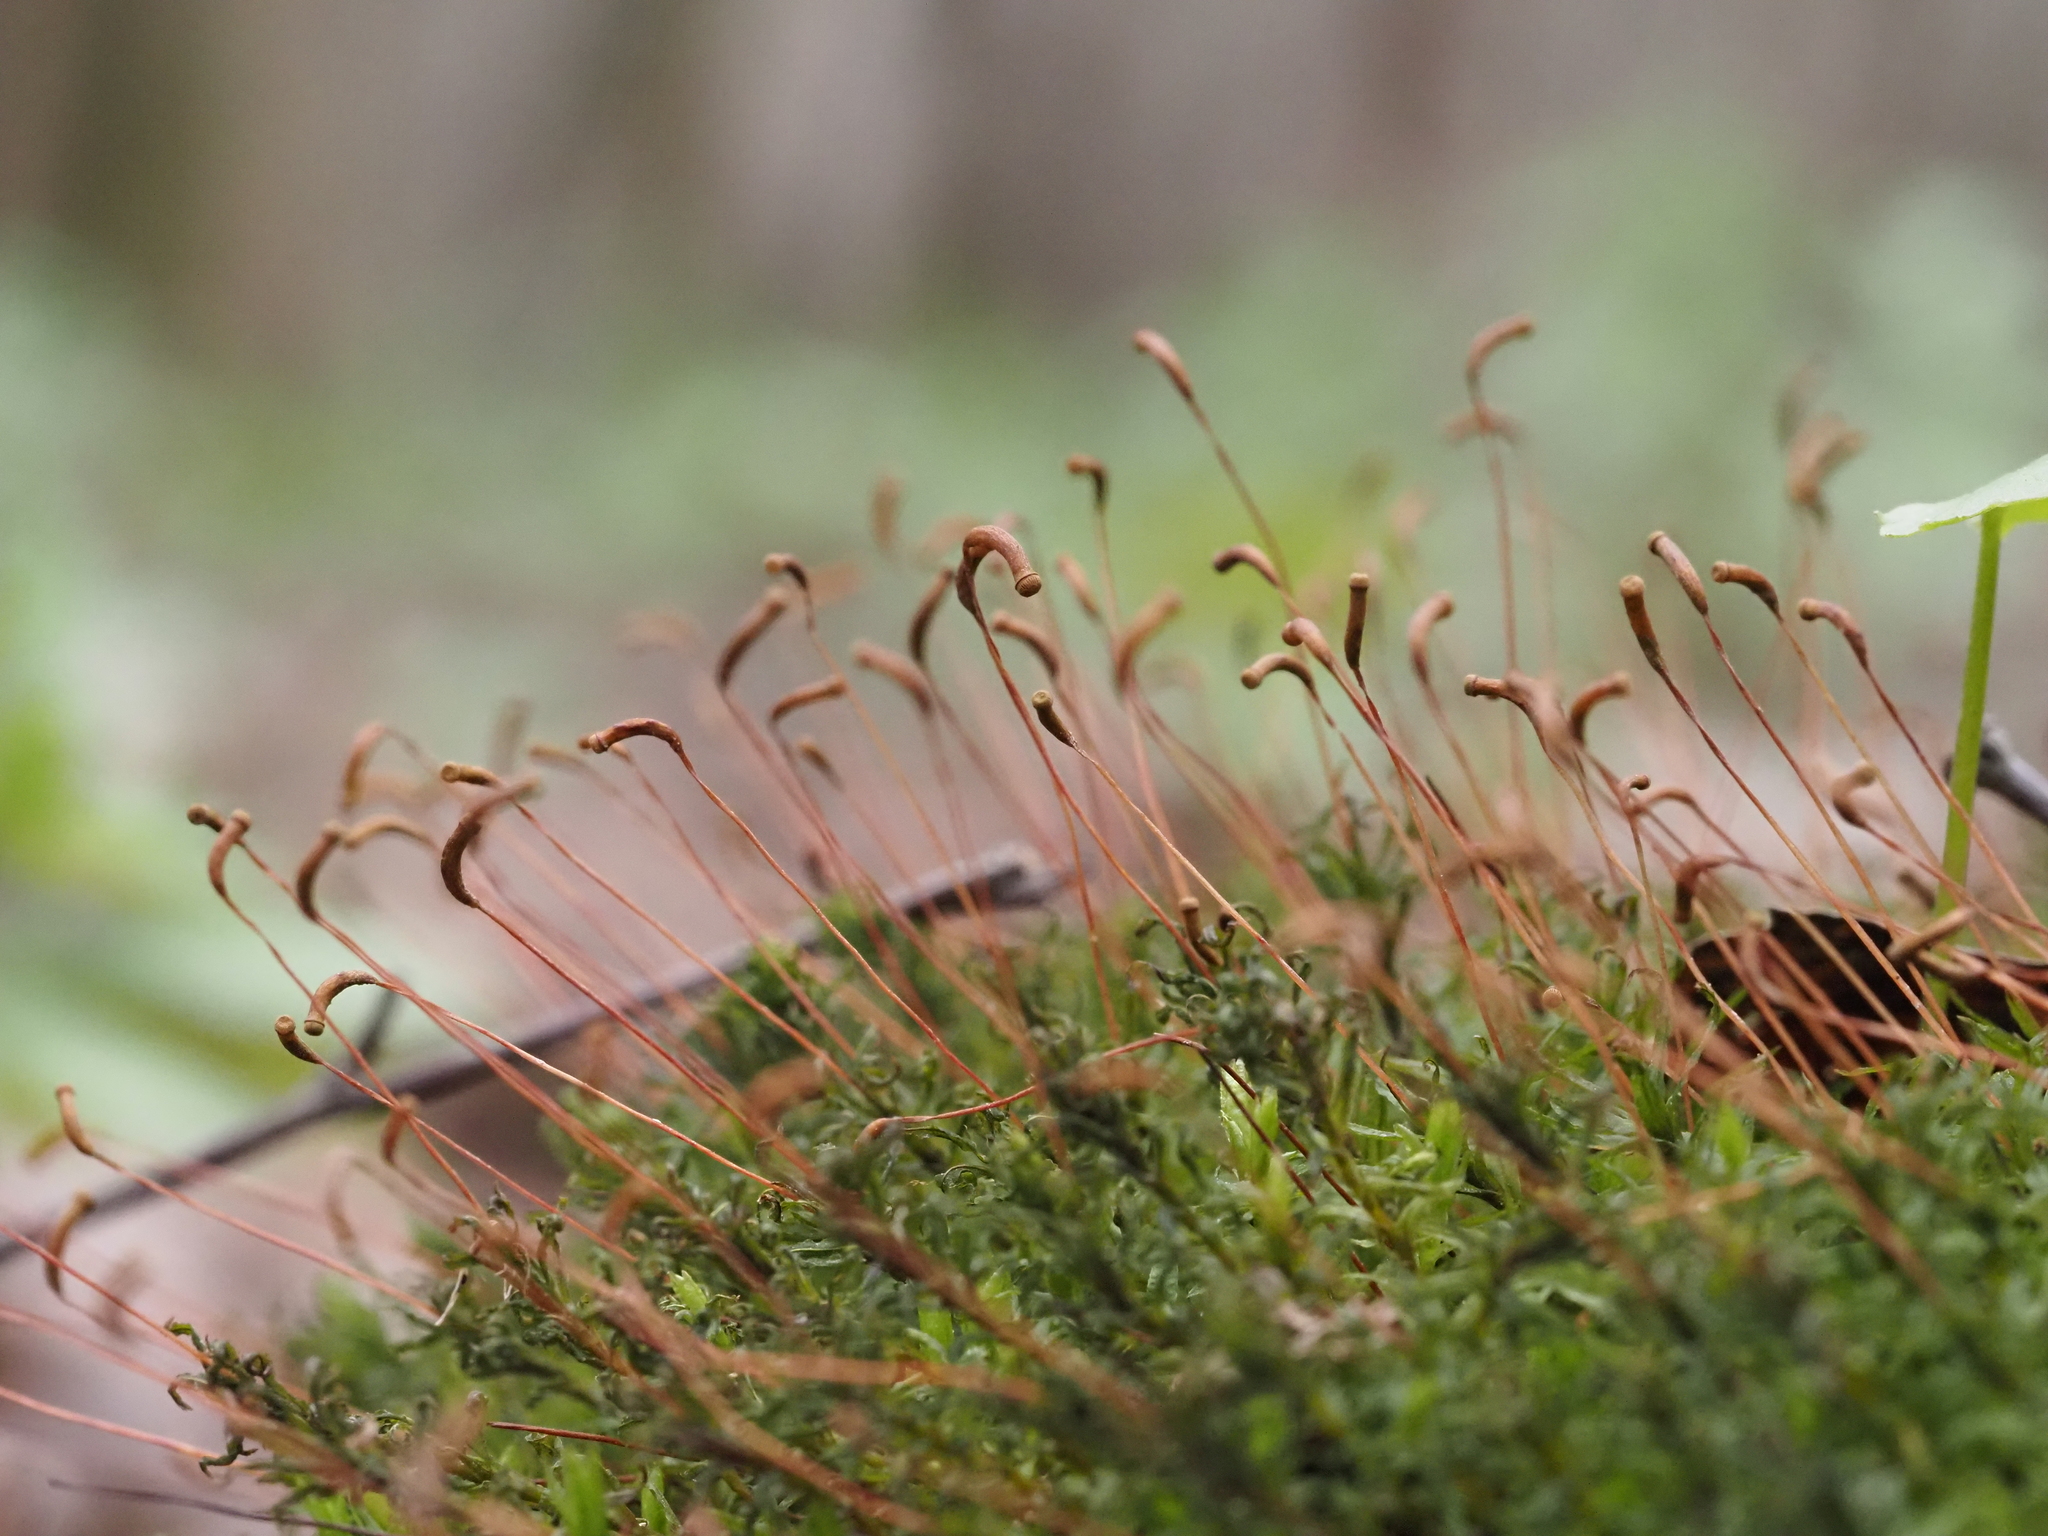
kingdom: Plantae
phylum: Bryophyta
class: Polytrichopsida
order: Polytrichales
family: Polytrichaceae
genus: Atrichum
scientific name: Atrichum undulatum
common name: Common smoothcap
